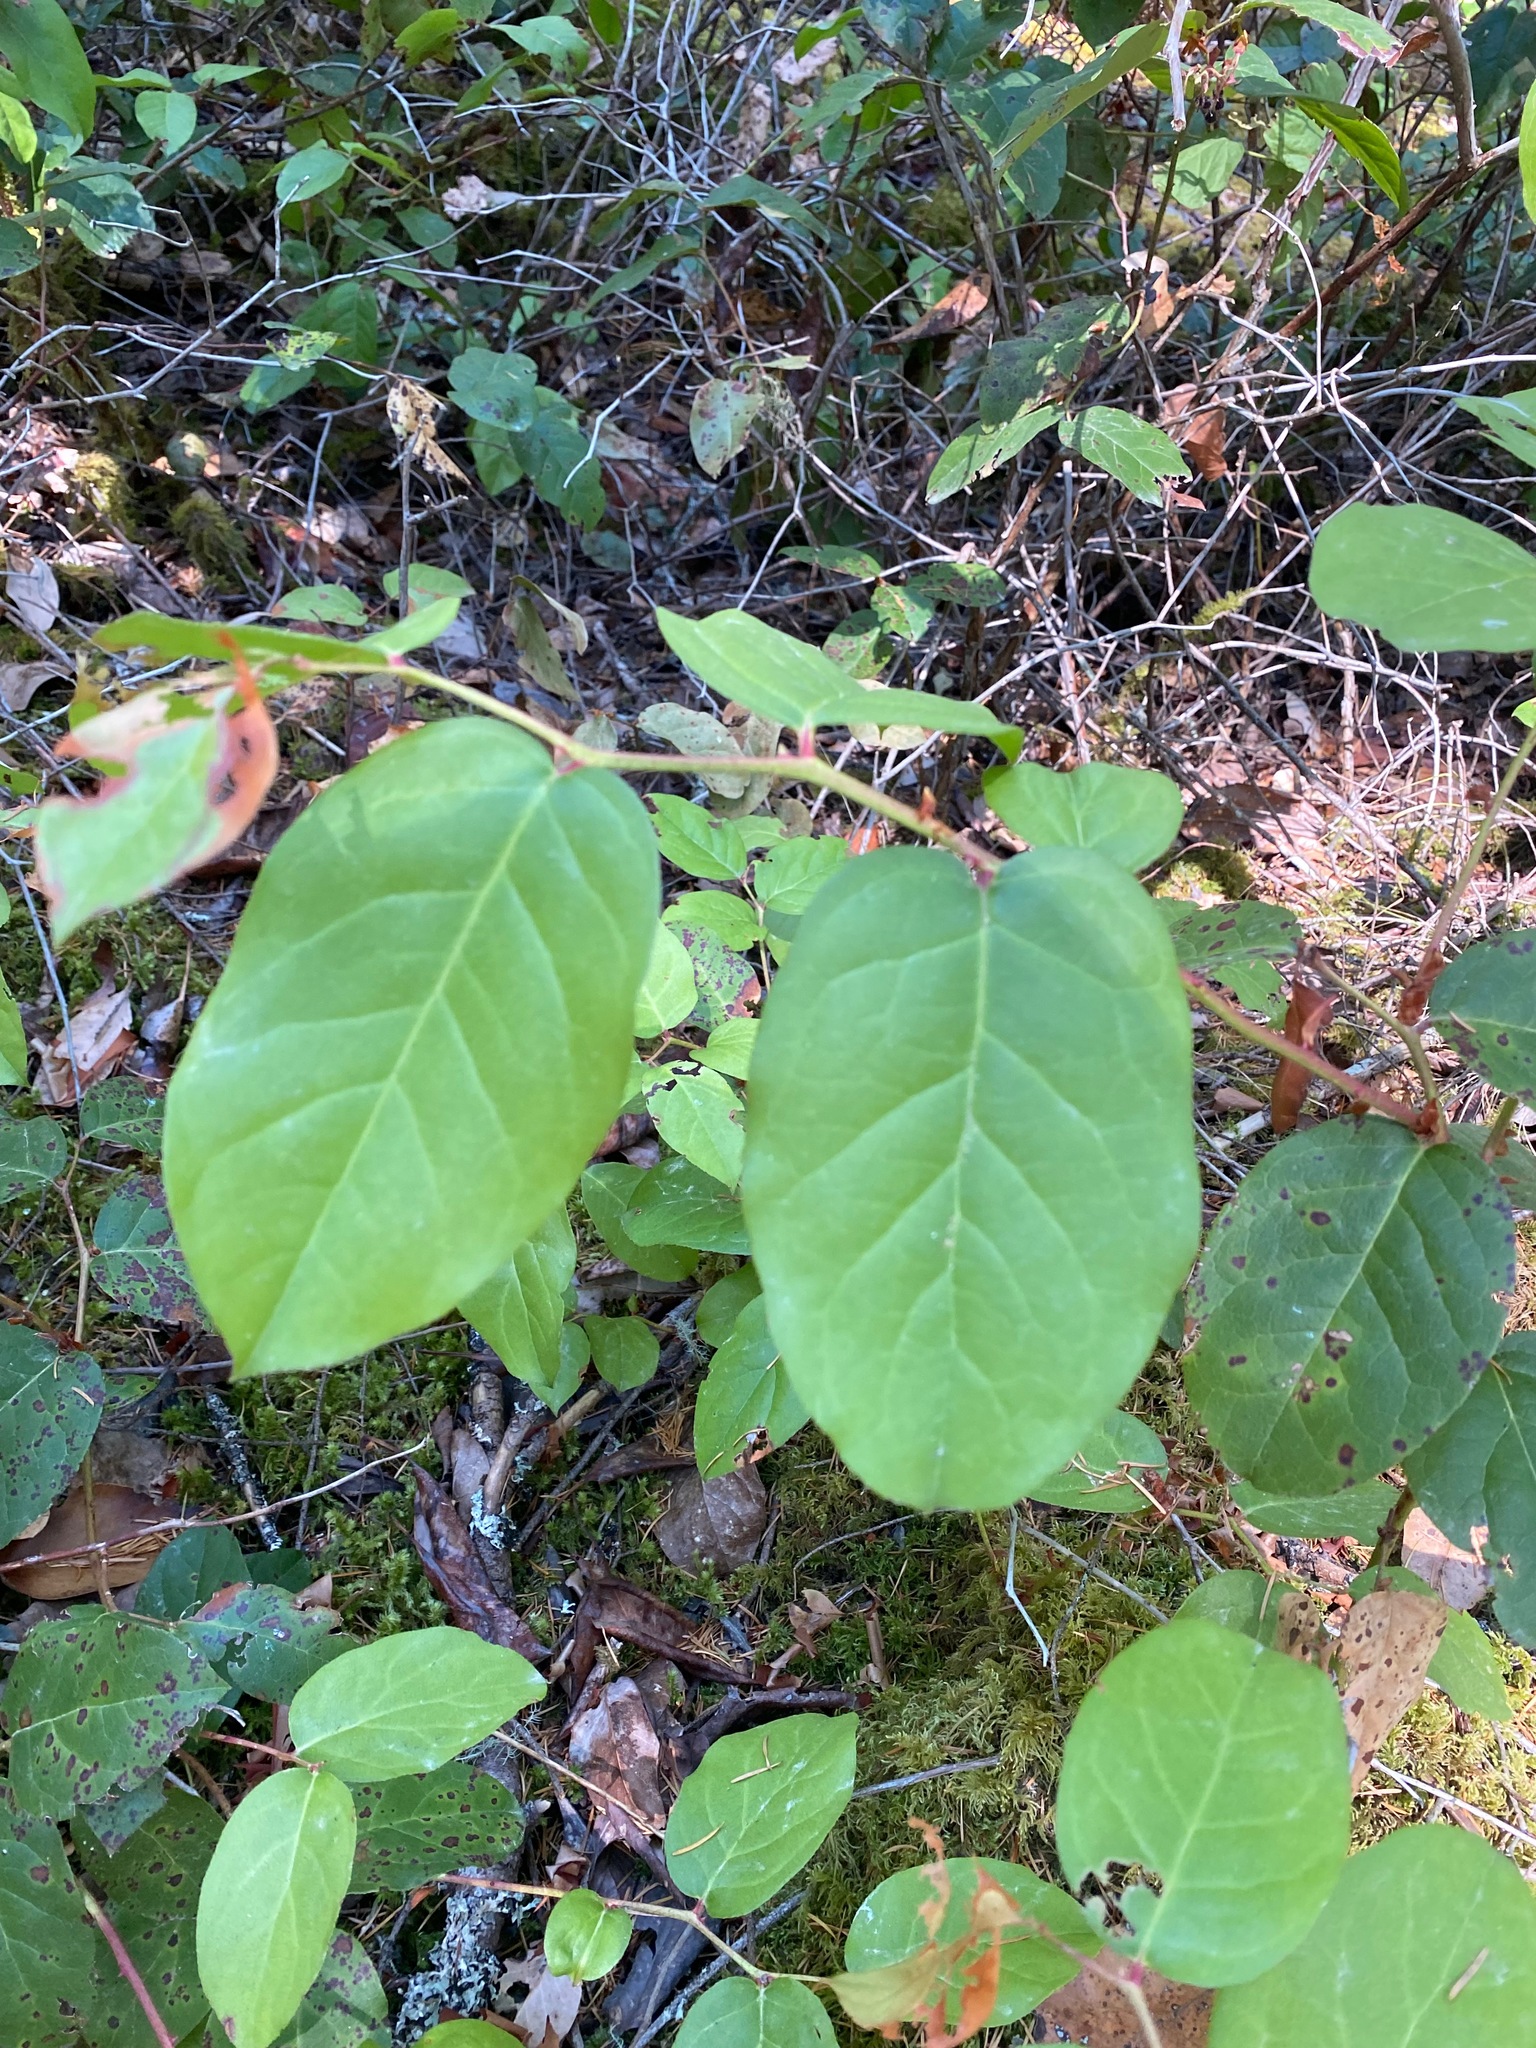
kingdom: Plantae
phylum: Tracheophyta
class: Magnoliopsida
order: Ericales
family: Ericaceae
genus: Gaultheria
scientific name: Gaultheria shallon
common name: Shallon
